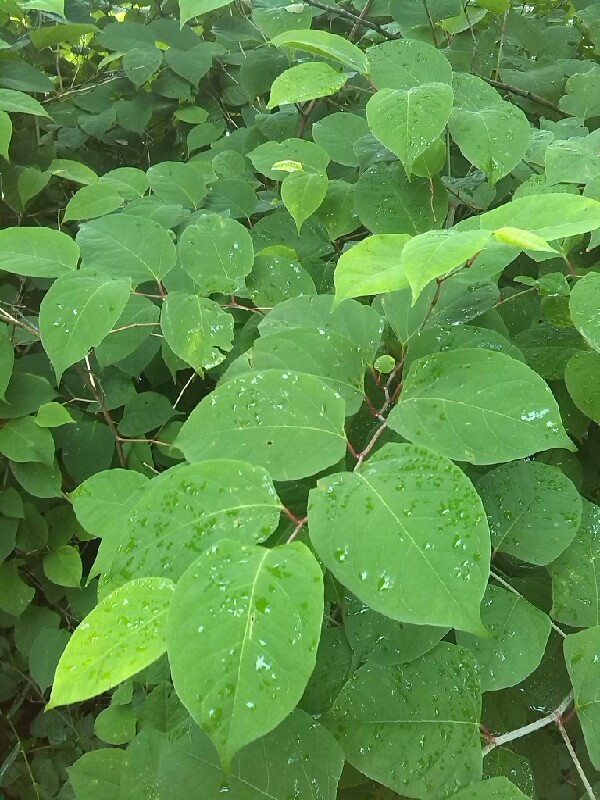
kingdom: Plantae
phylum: Tracheophyta
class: Magnoliopsida
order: Caryophyllales
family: Polygonaceae
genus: Reynoutria
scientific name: Reynoutria japonica
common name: Japanese knotweed
